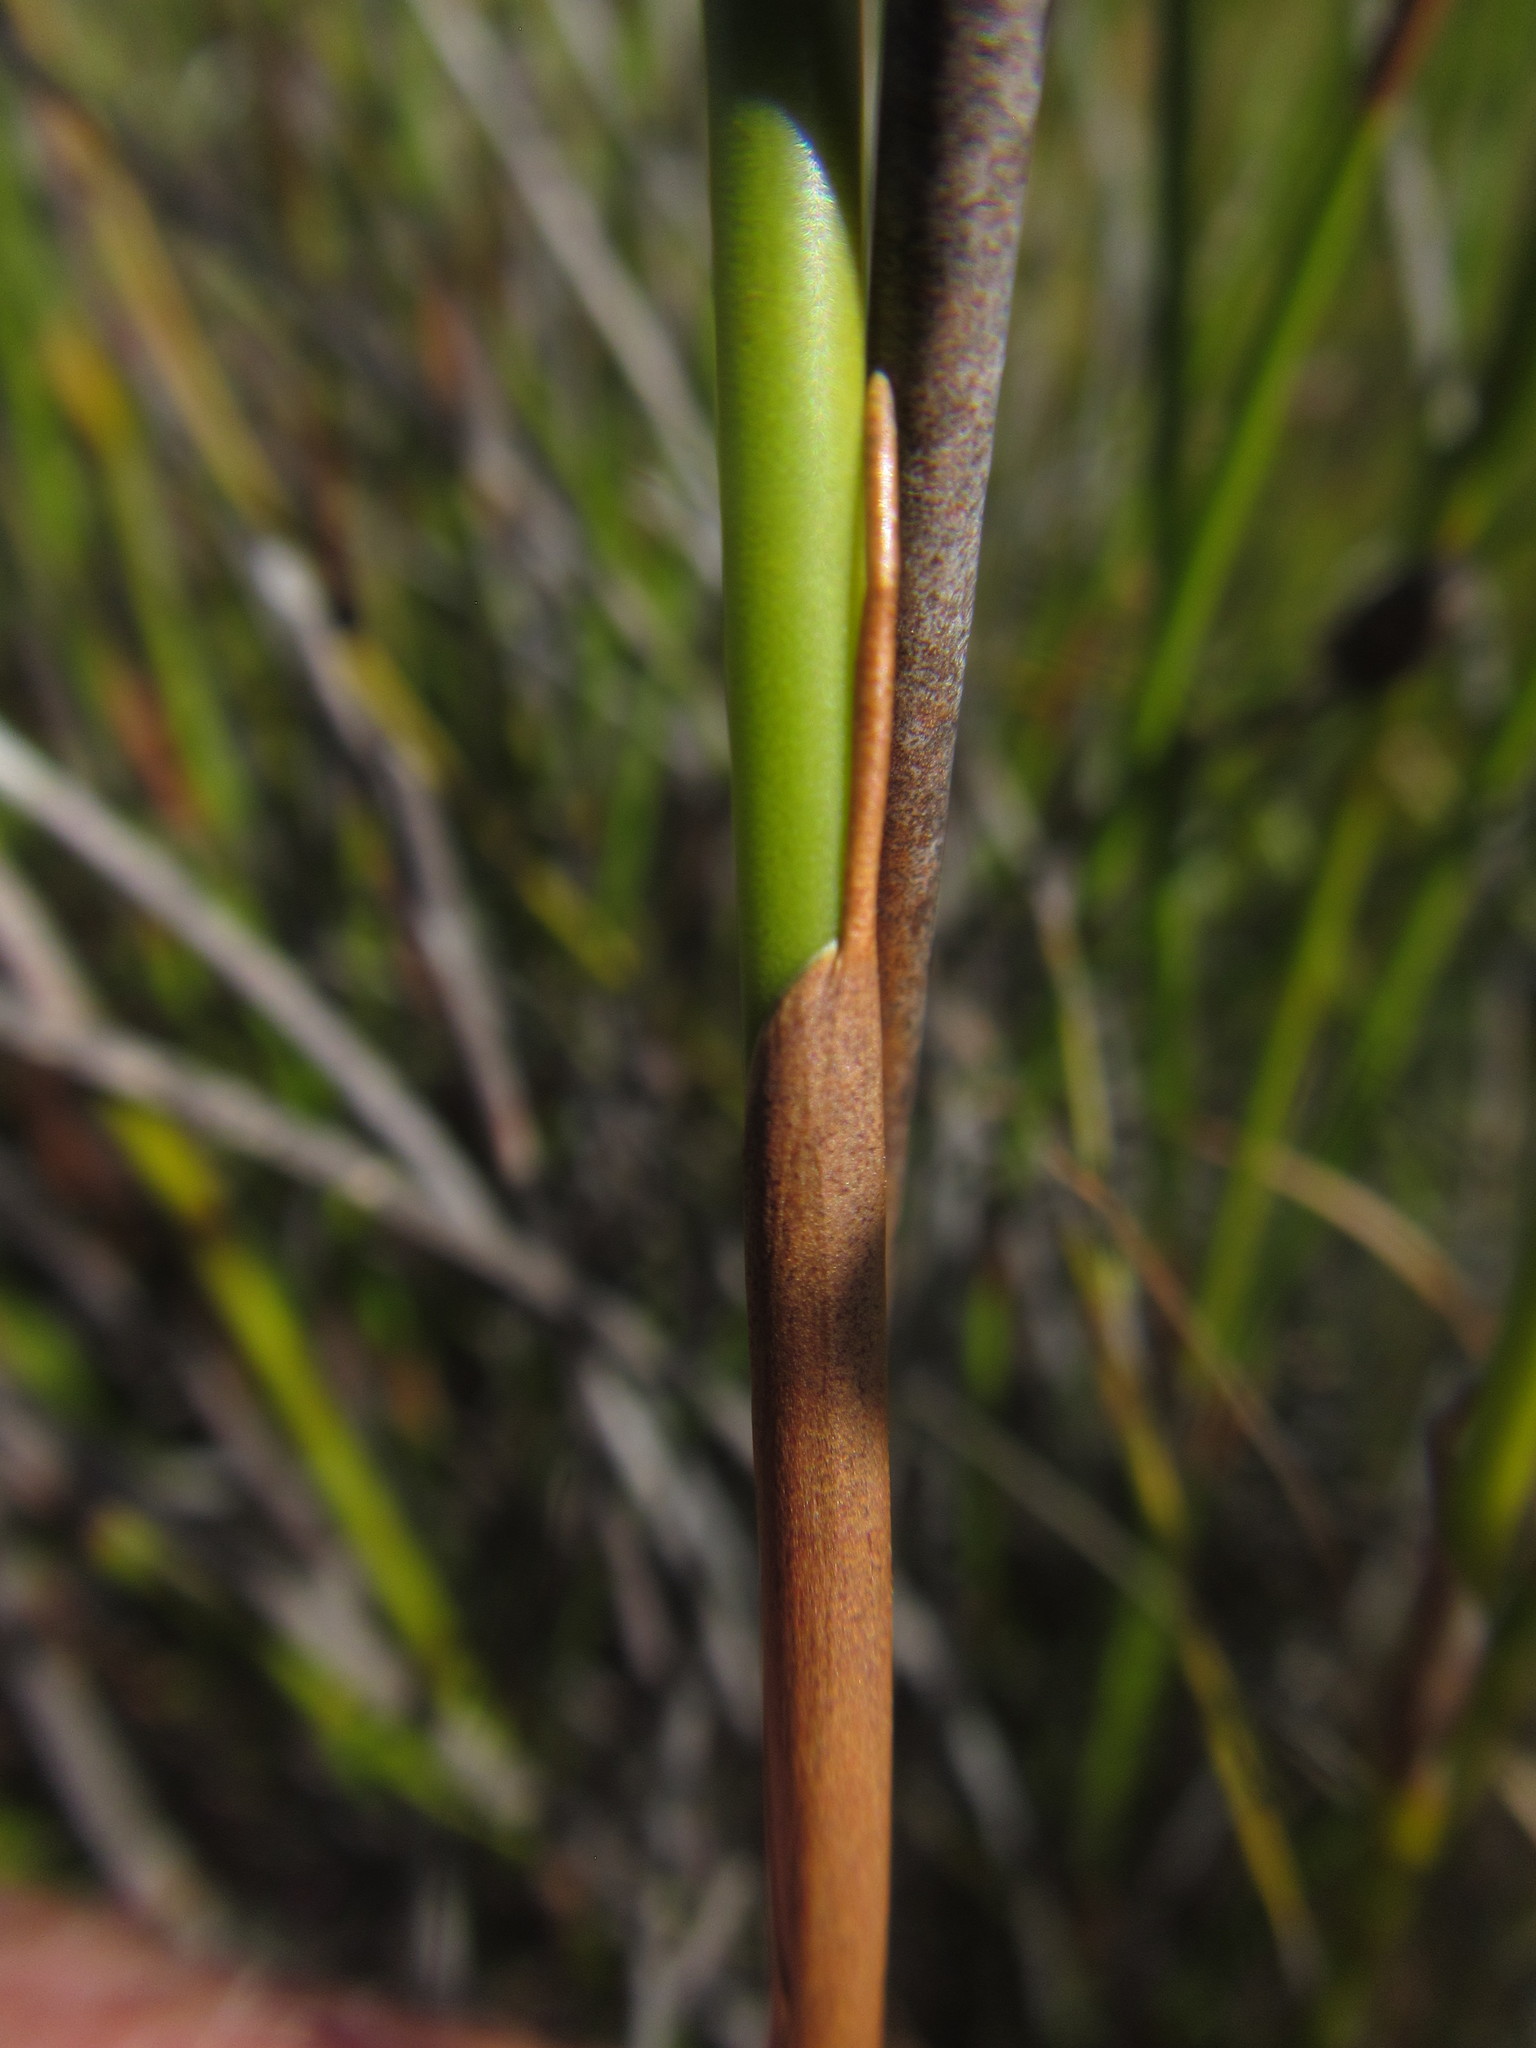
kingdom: Plantae
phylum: Tracheophyta
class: Liliopsida
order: Poales
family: Restionaceae
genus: Nevillea
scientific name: Nevillea obtusissimus
